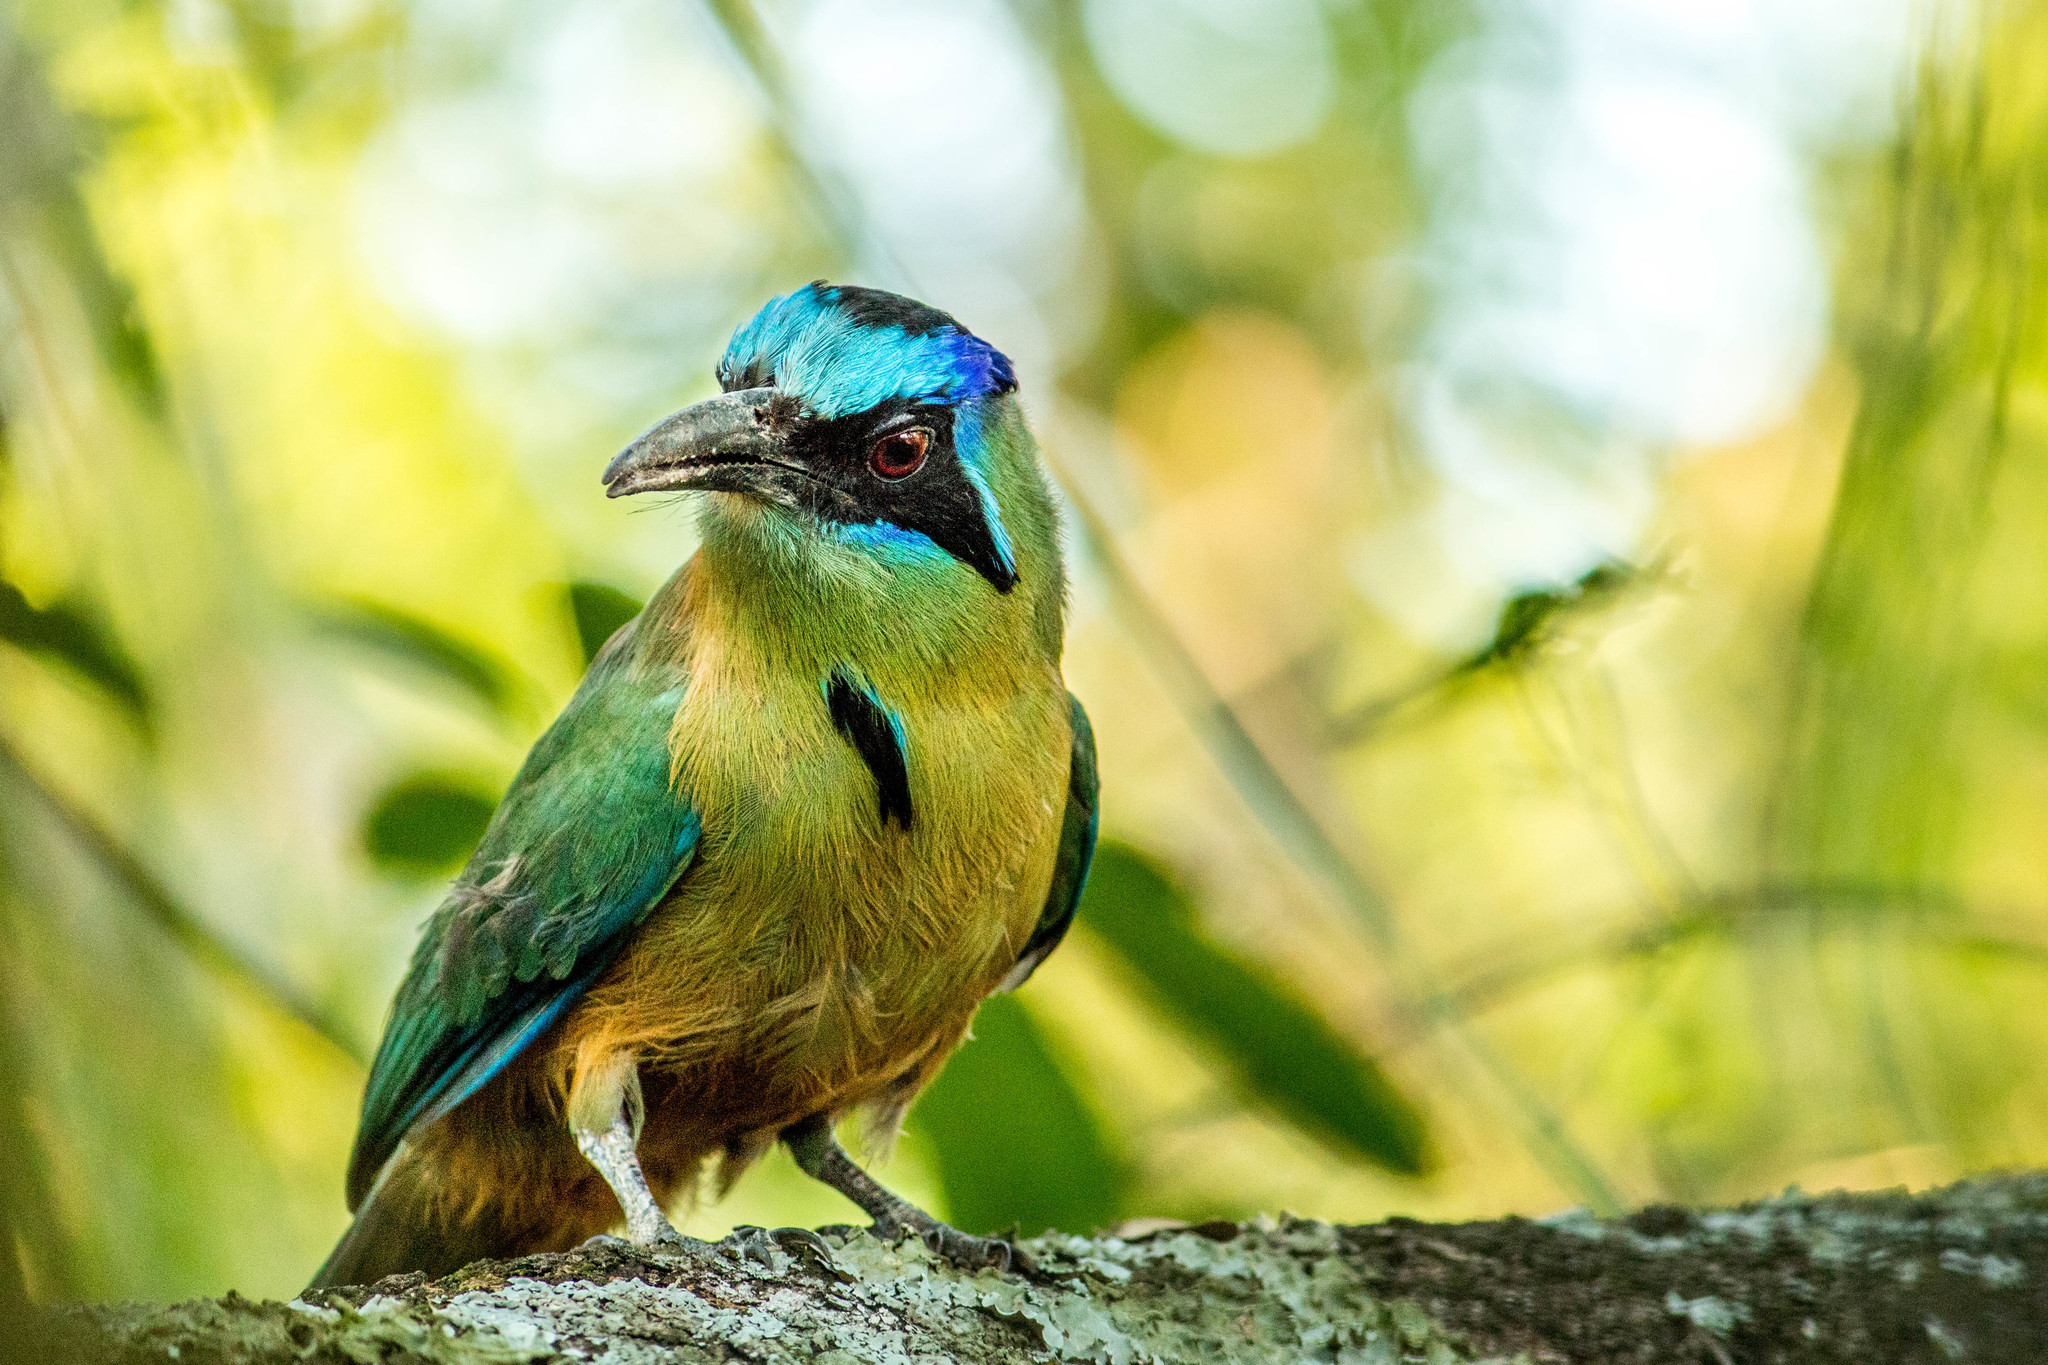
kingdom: Animalia
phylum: Chordata
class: Aves
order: Coraciiformes
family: Momotidae
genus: Momotus
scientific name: Momotus momota
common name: Amazonian motmot
